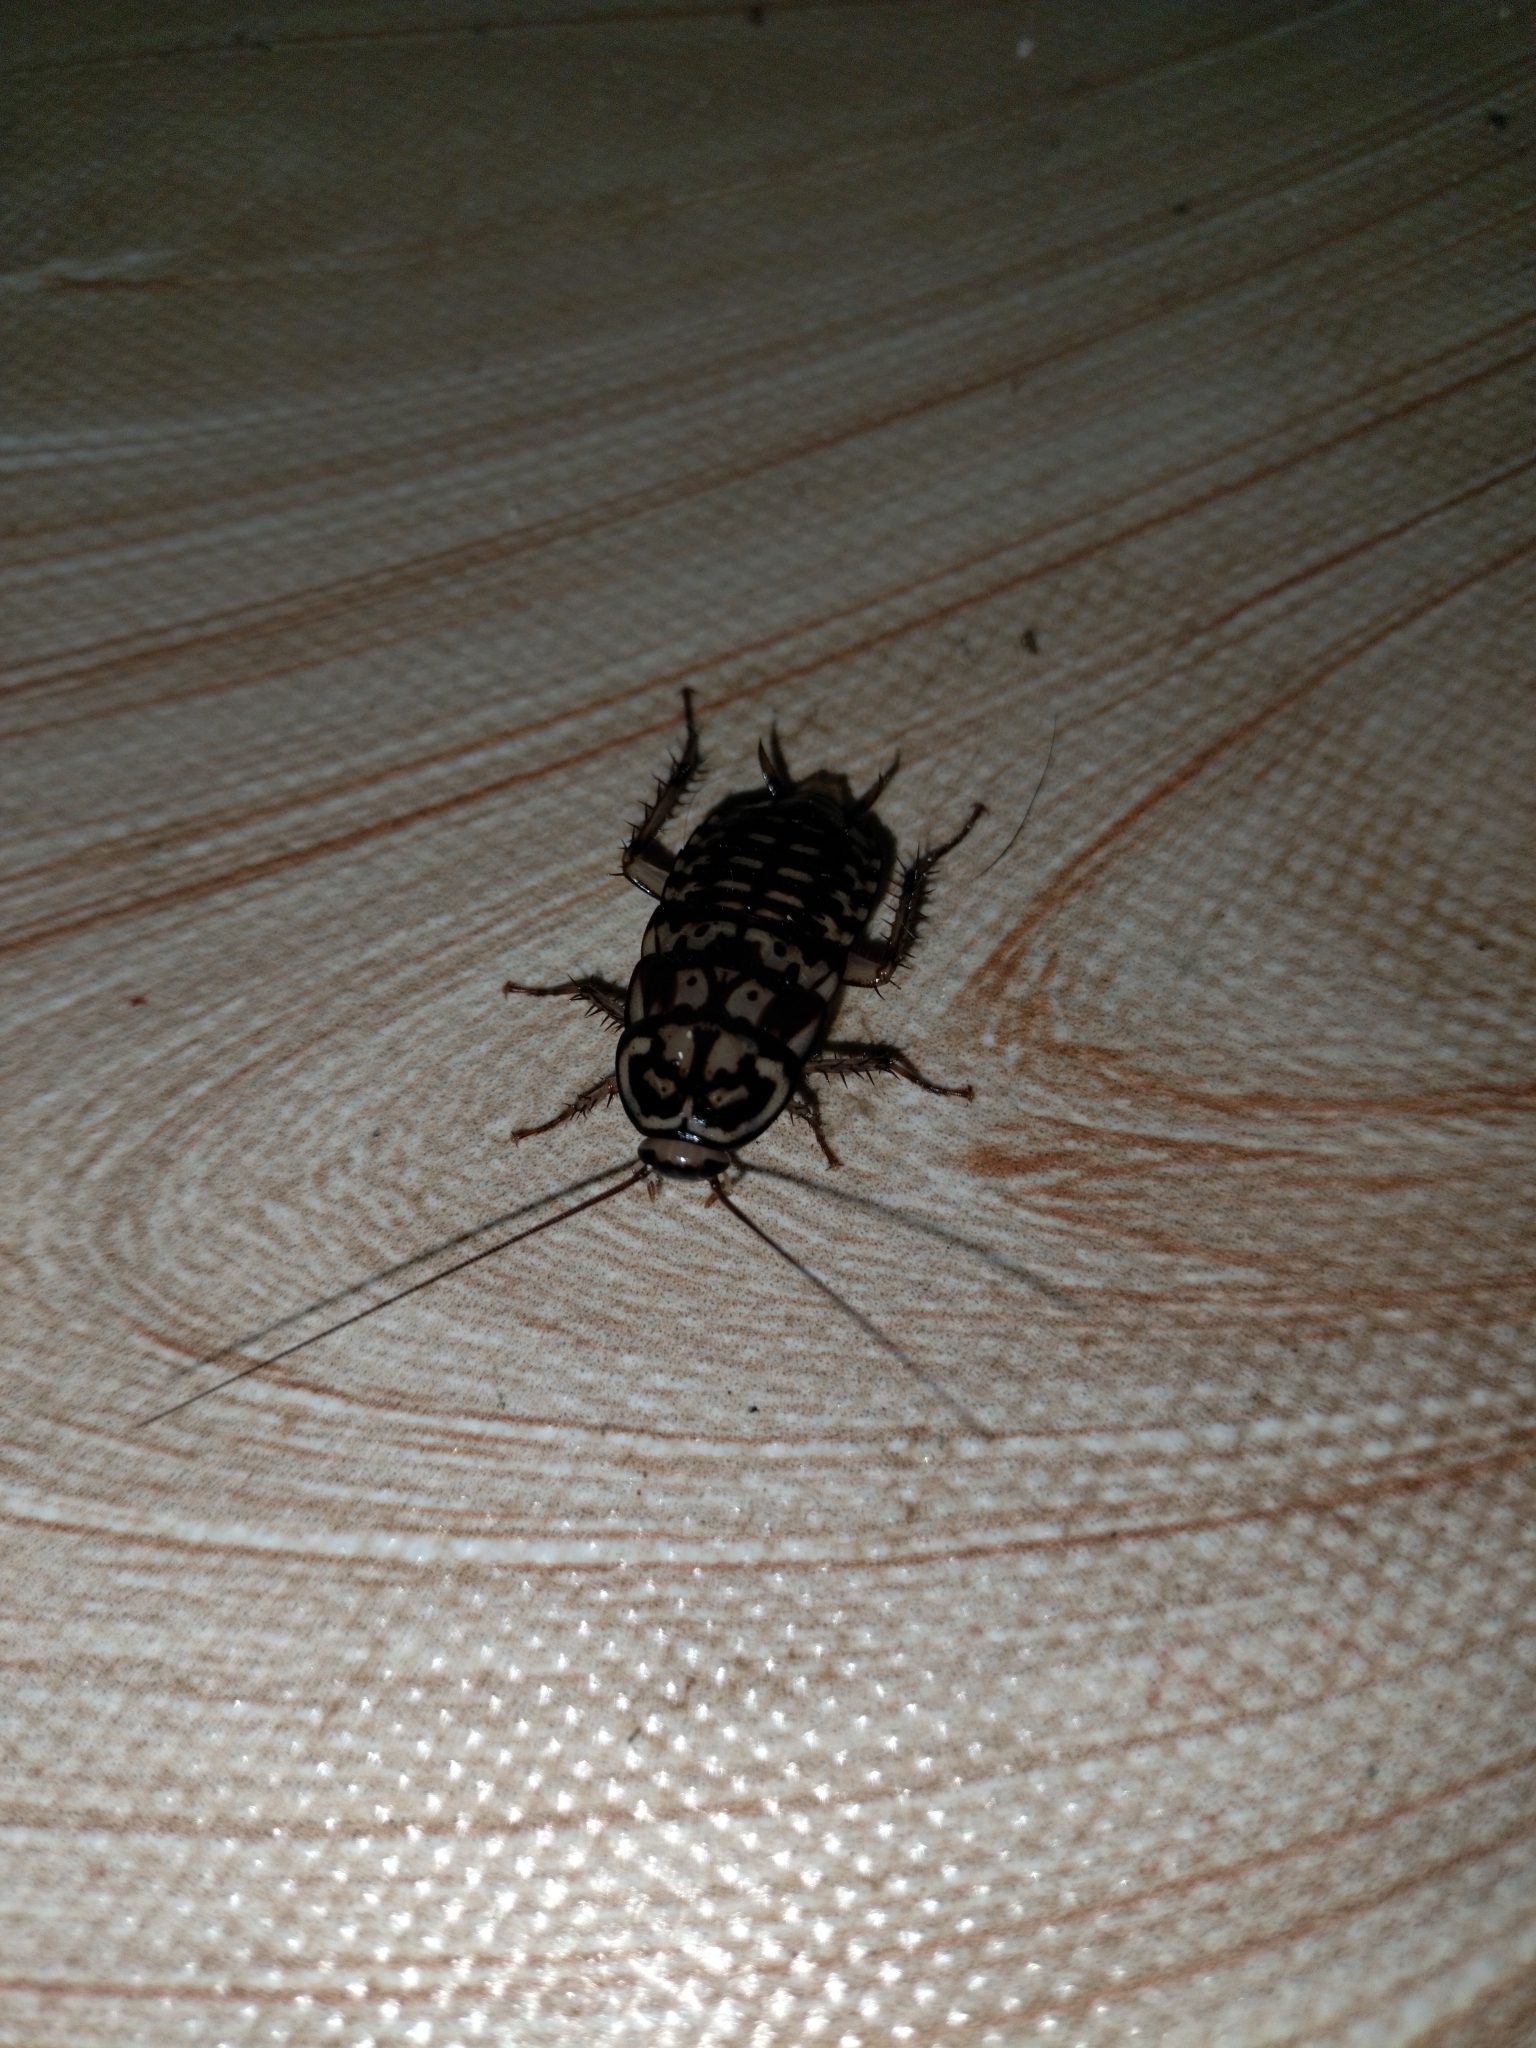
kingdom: Animalia
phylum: Arthropoda
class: Insecta
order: Blattodea
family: Blattidae
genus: Neostylopyga
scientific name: Neostylopyga rhombifolia
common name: Harlequin cockroach
